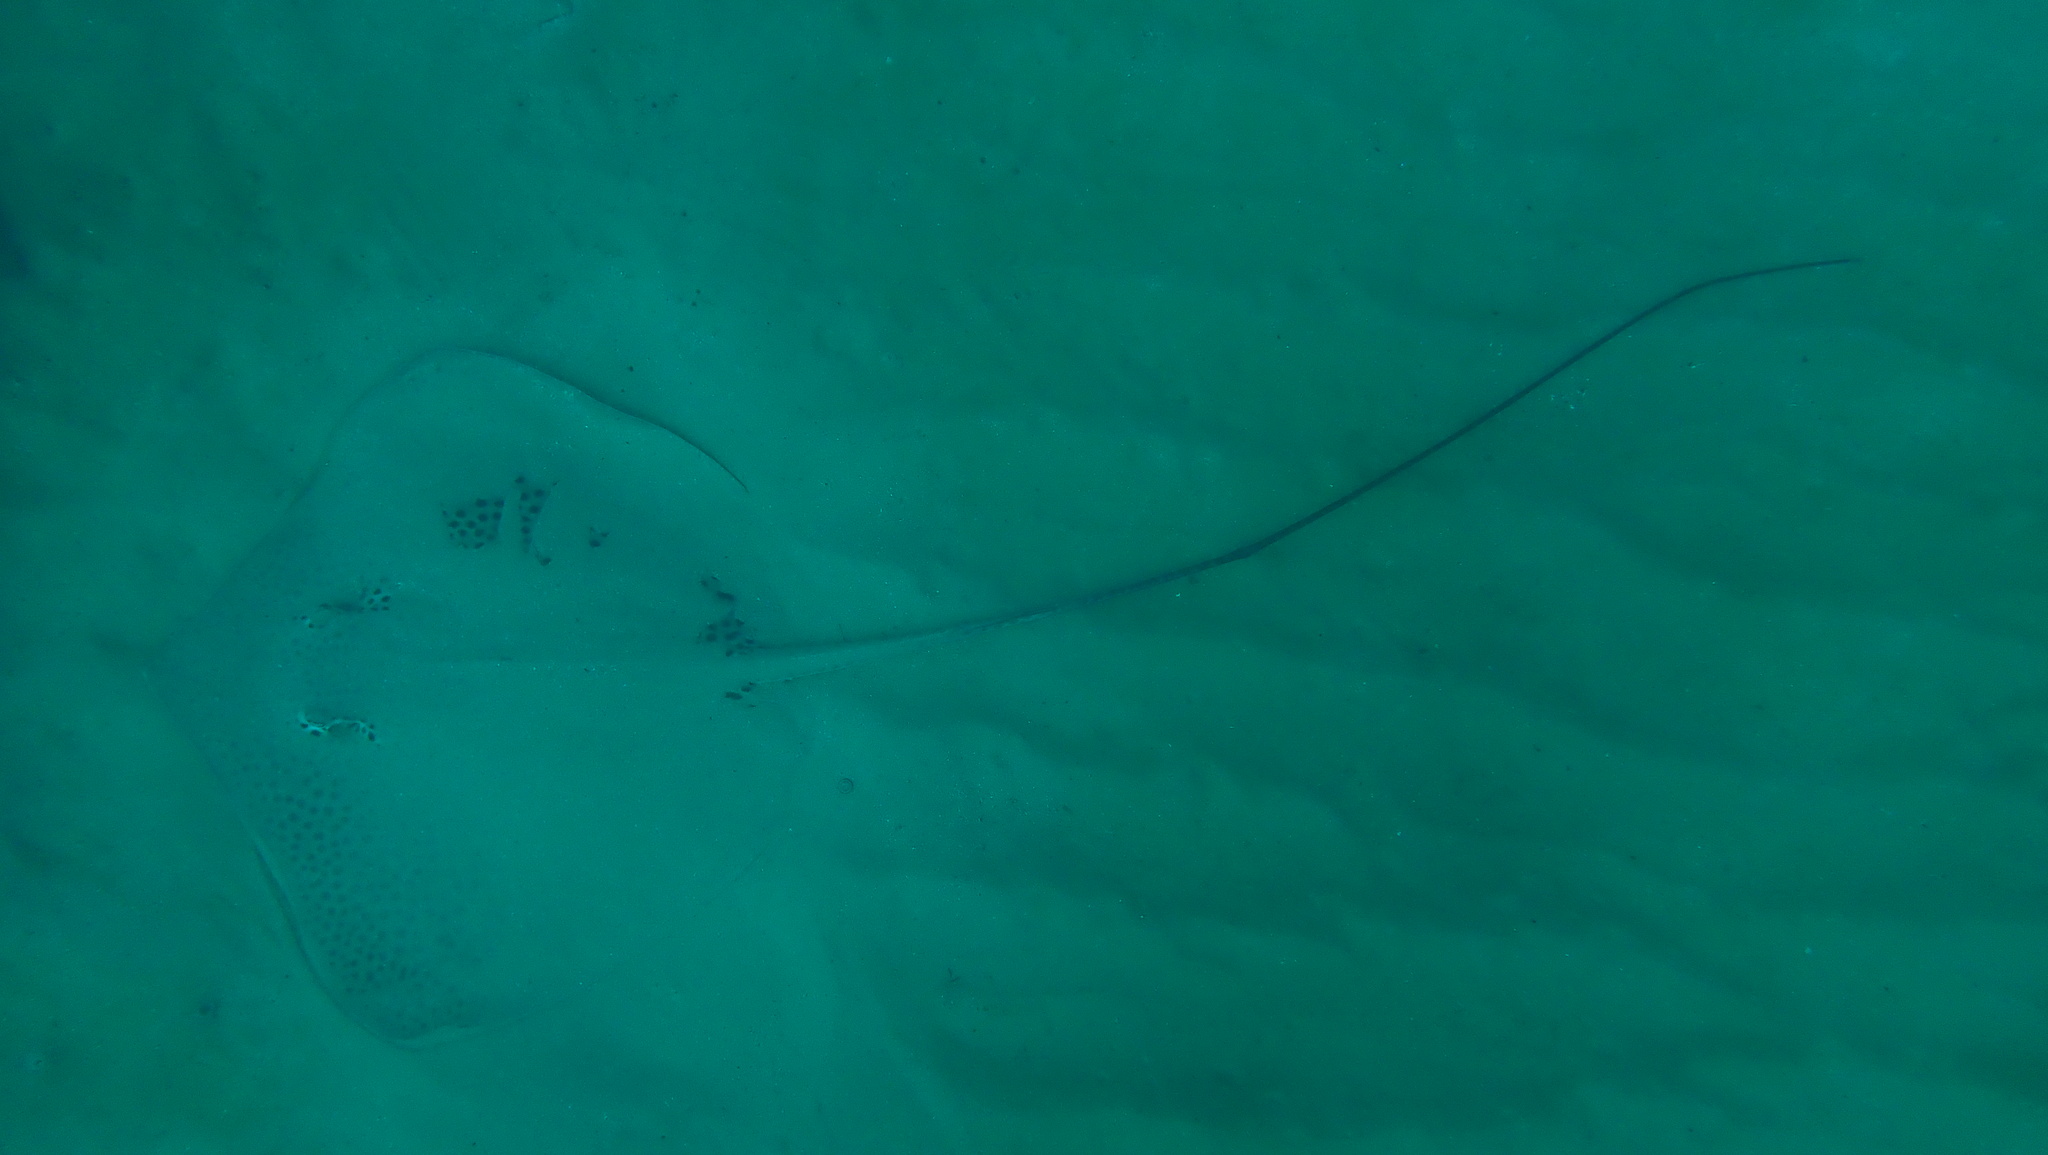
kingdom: Animalia
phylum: Chordata
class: Elasmobranchii
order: Myliobatiformes
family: Dasyatidae
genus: Himantura
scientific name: Himantura uarnak
